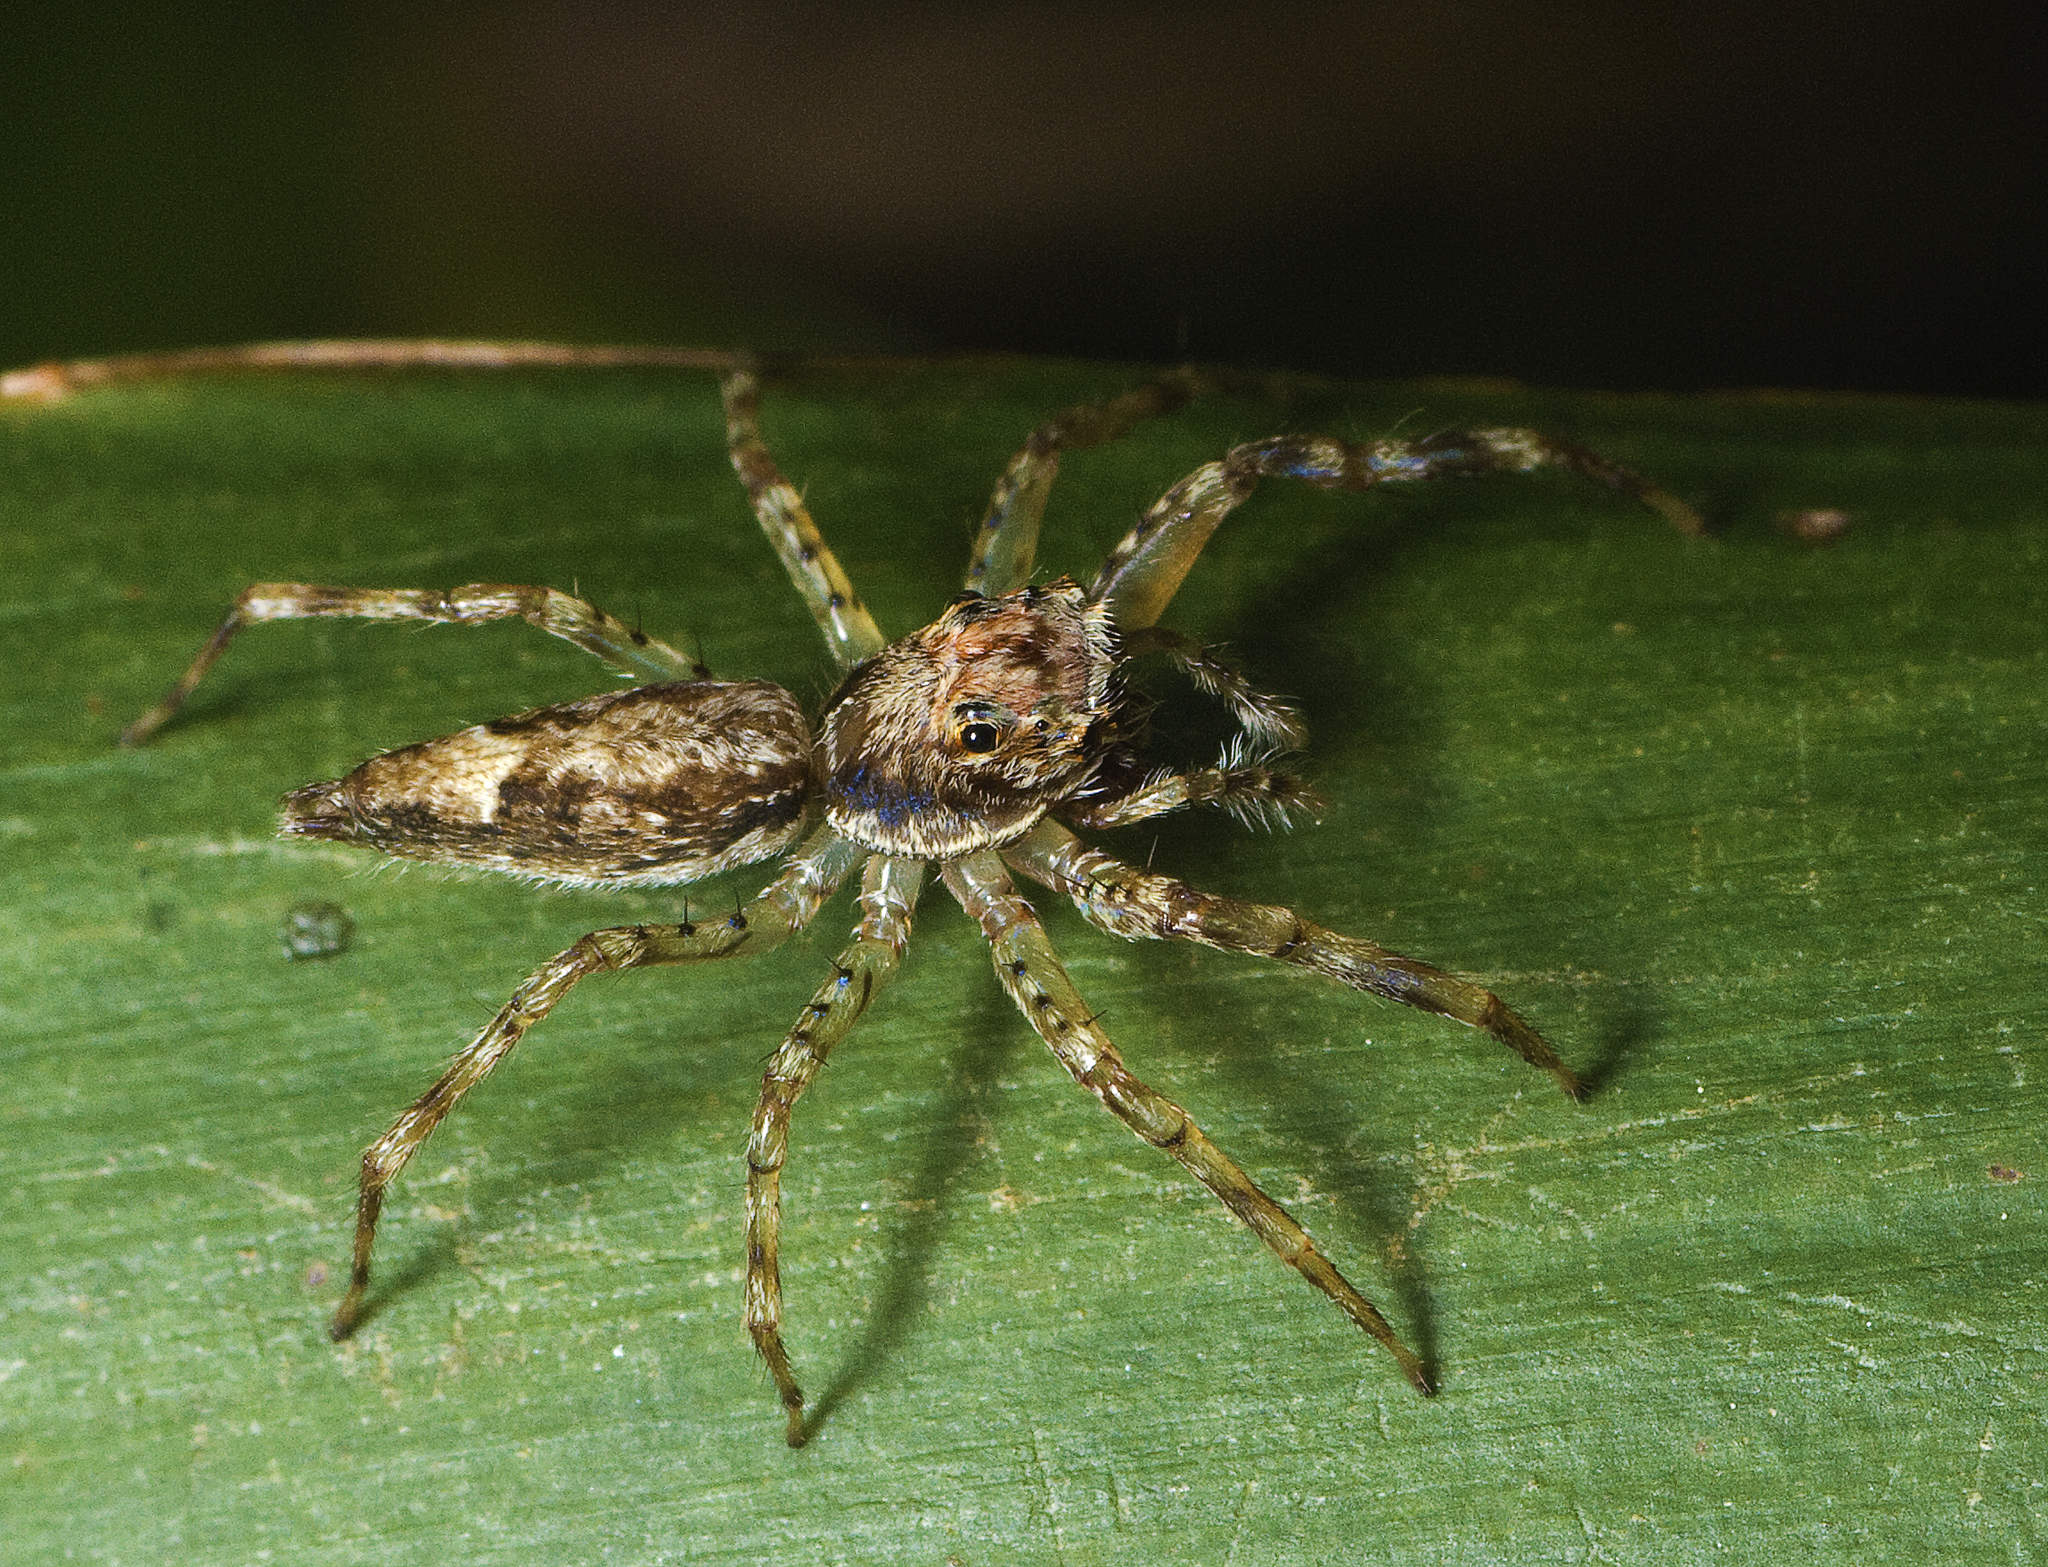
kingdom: Animalia
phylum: Arthropoda
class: Arachnida
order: Araneae
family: Salticidae
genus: Helpis
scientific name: Helpis minitabunda
